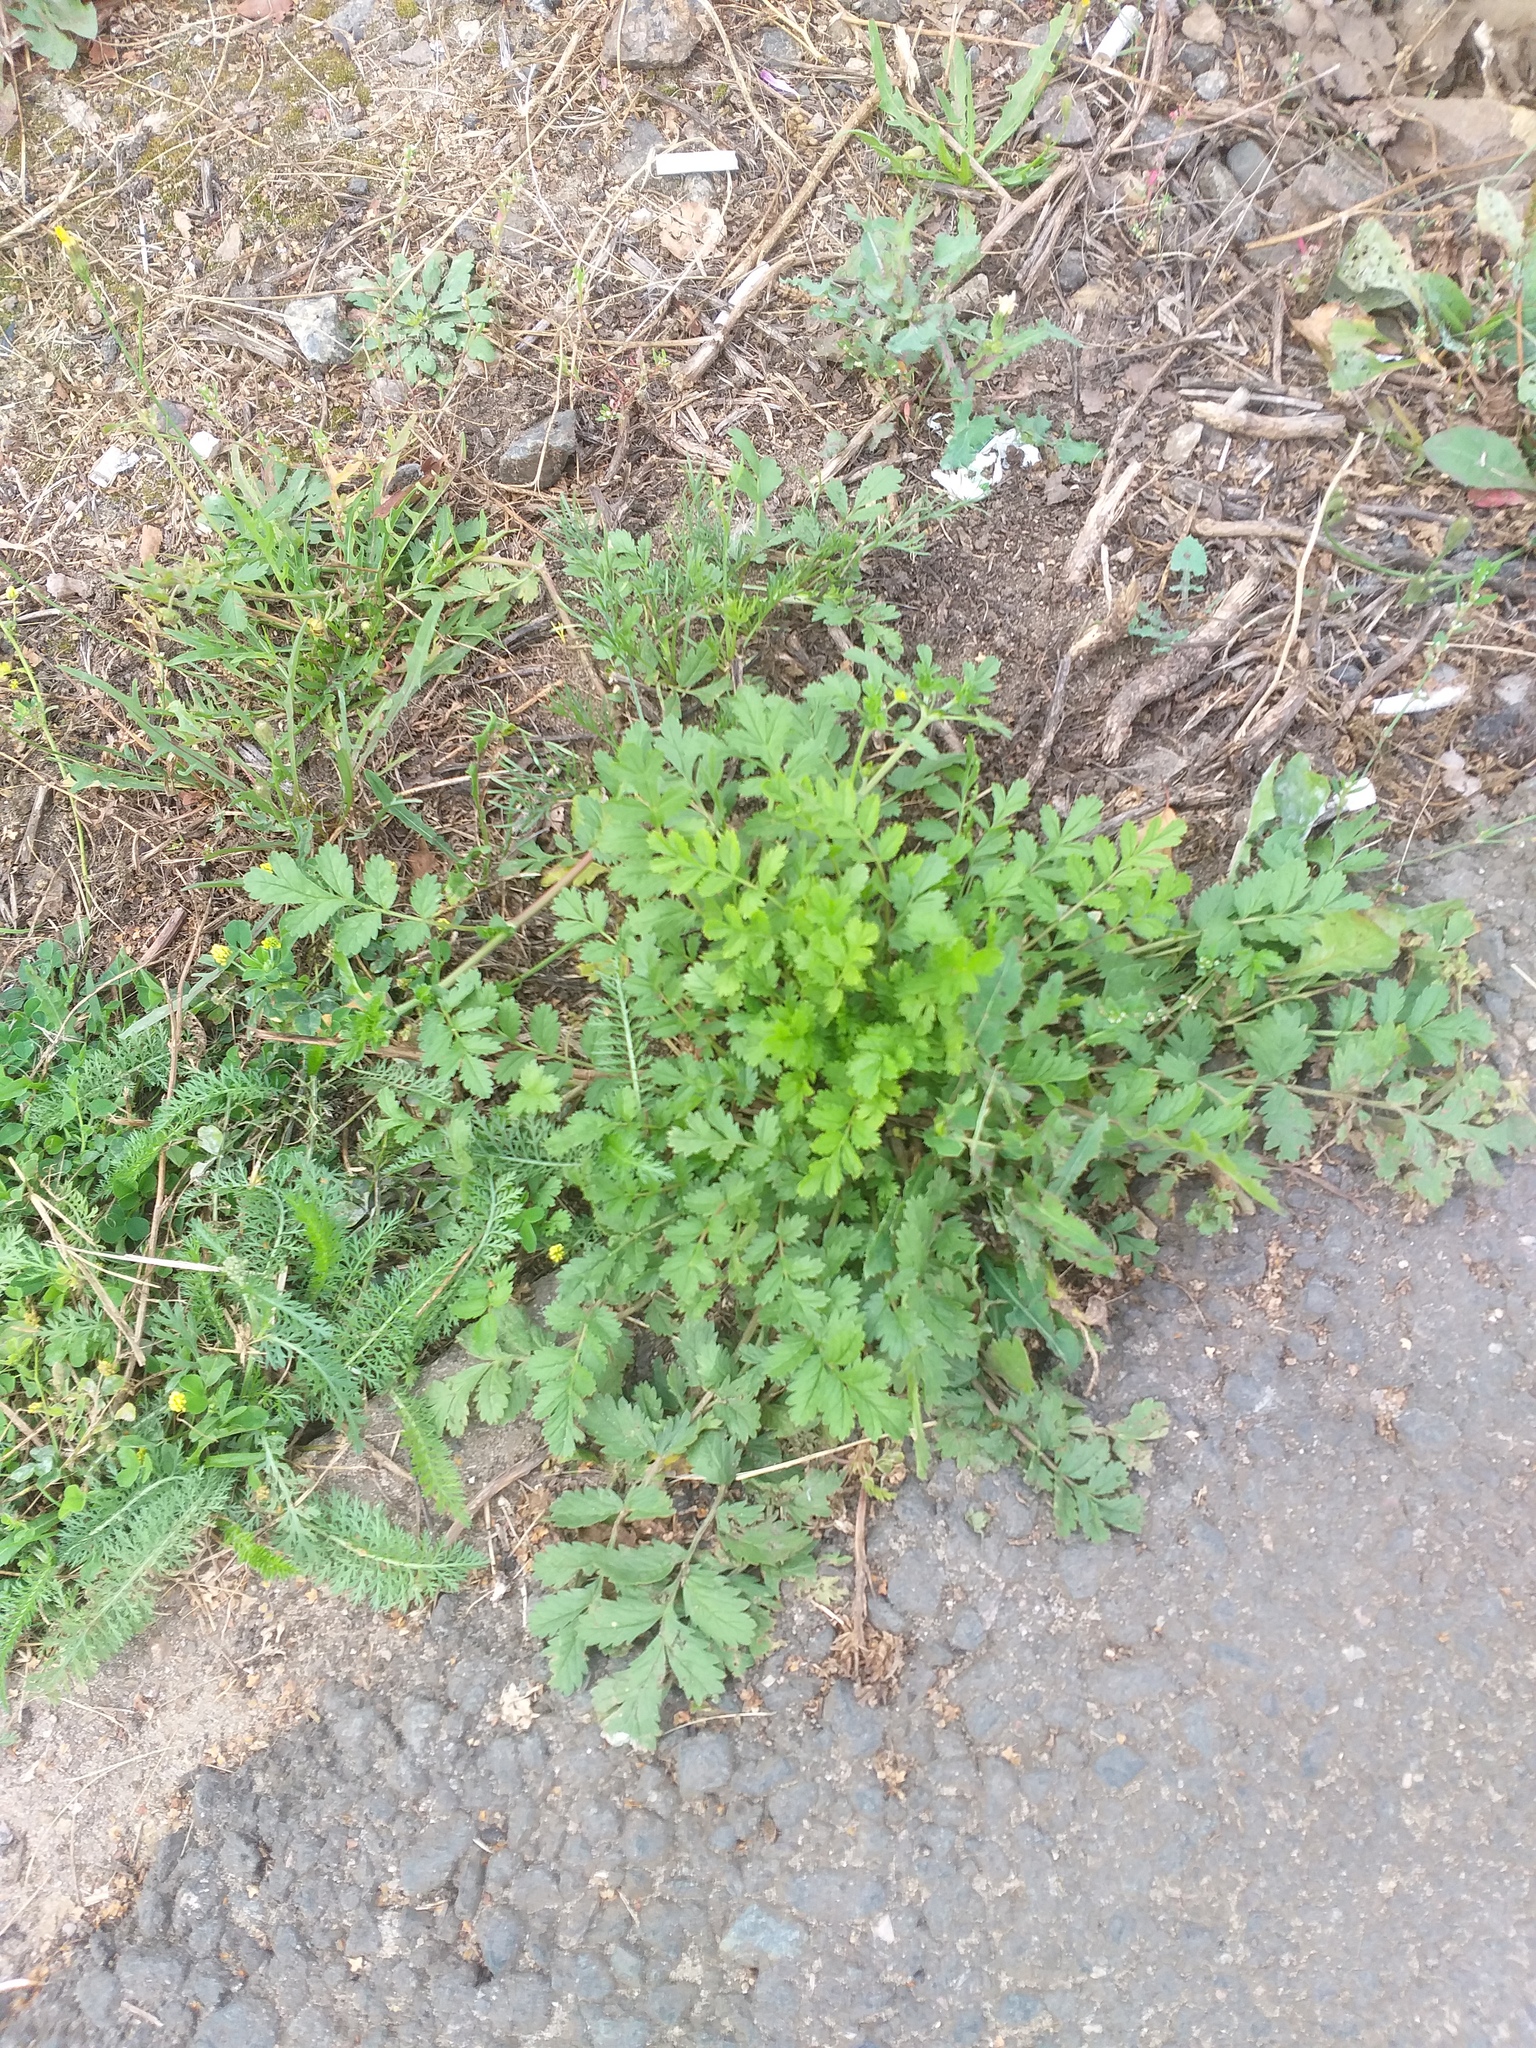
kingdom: Plantae
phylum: Tracheophyta
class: Magnoliopsida
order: Rosales
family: Rosaceae
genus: Potentilla
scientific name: Potentilla supina
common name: Prostrate cinquefoil
